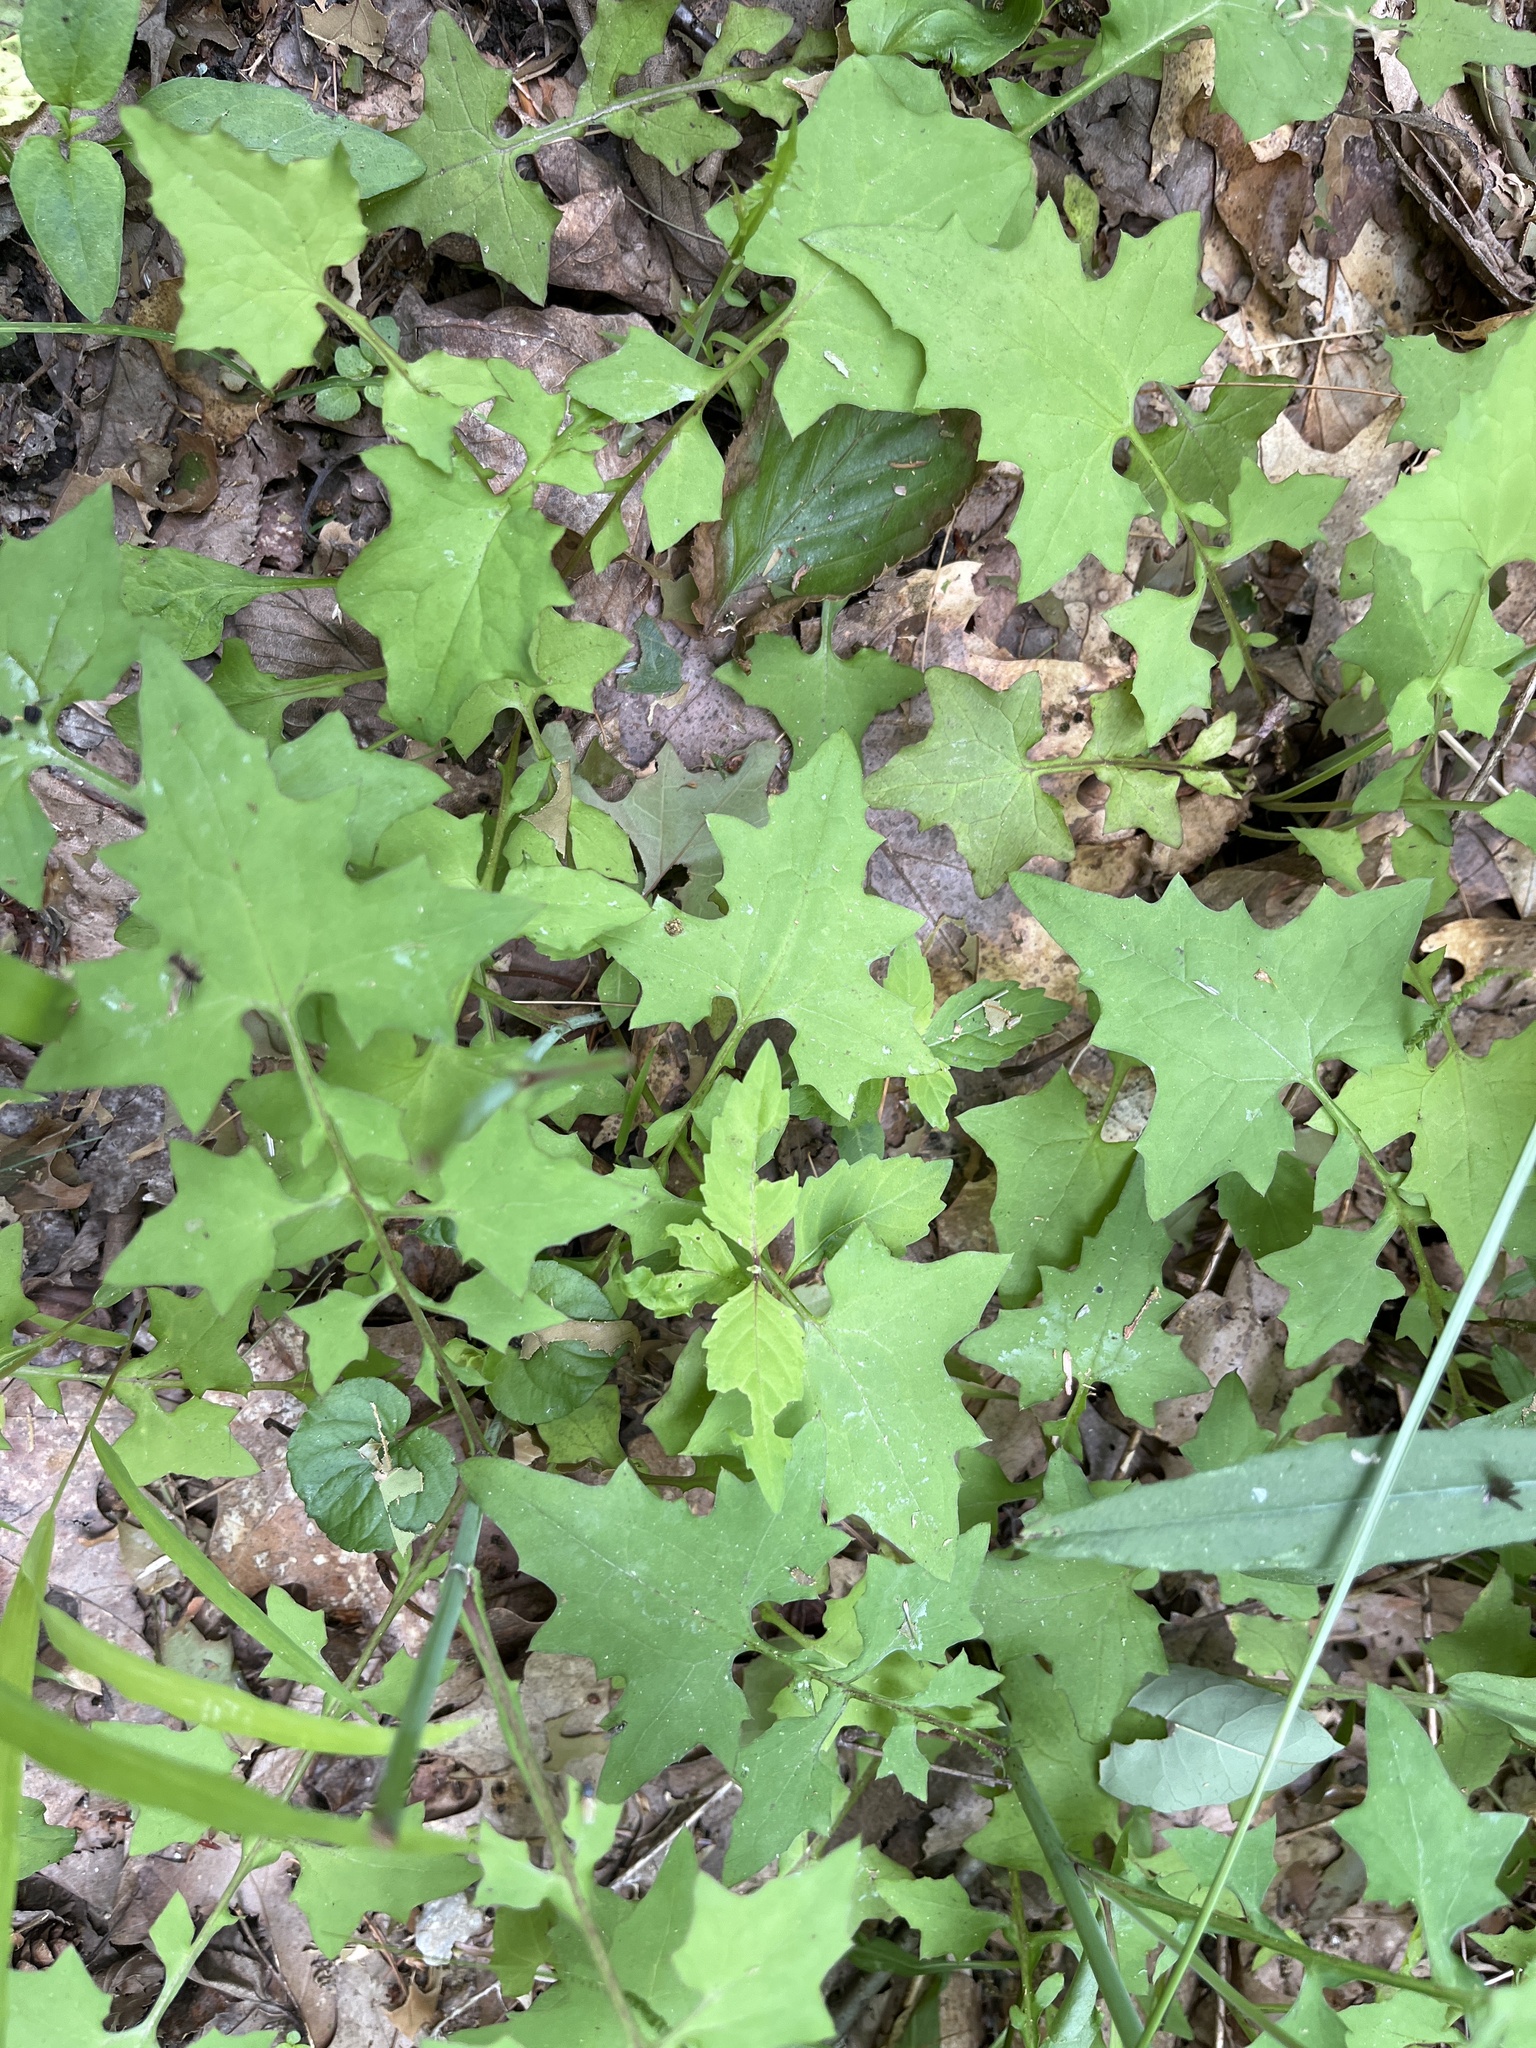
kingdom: Plantae
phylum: Tracheophyta
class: Magnoliopsida
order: Asterales
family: Asteraceae
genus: Mycelis
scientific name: Mycelis muralis
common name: Wall lettuce
